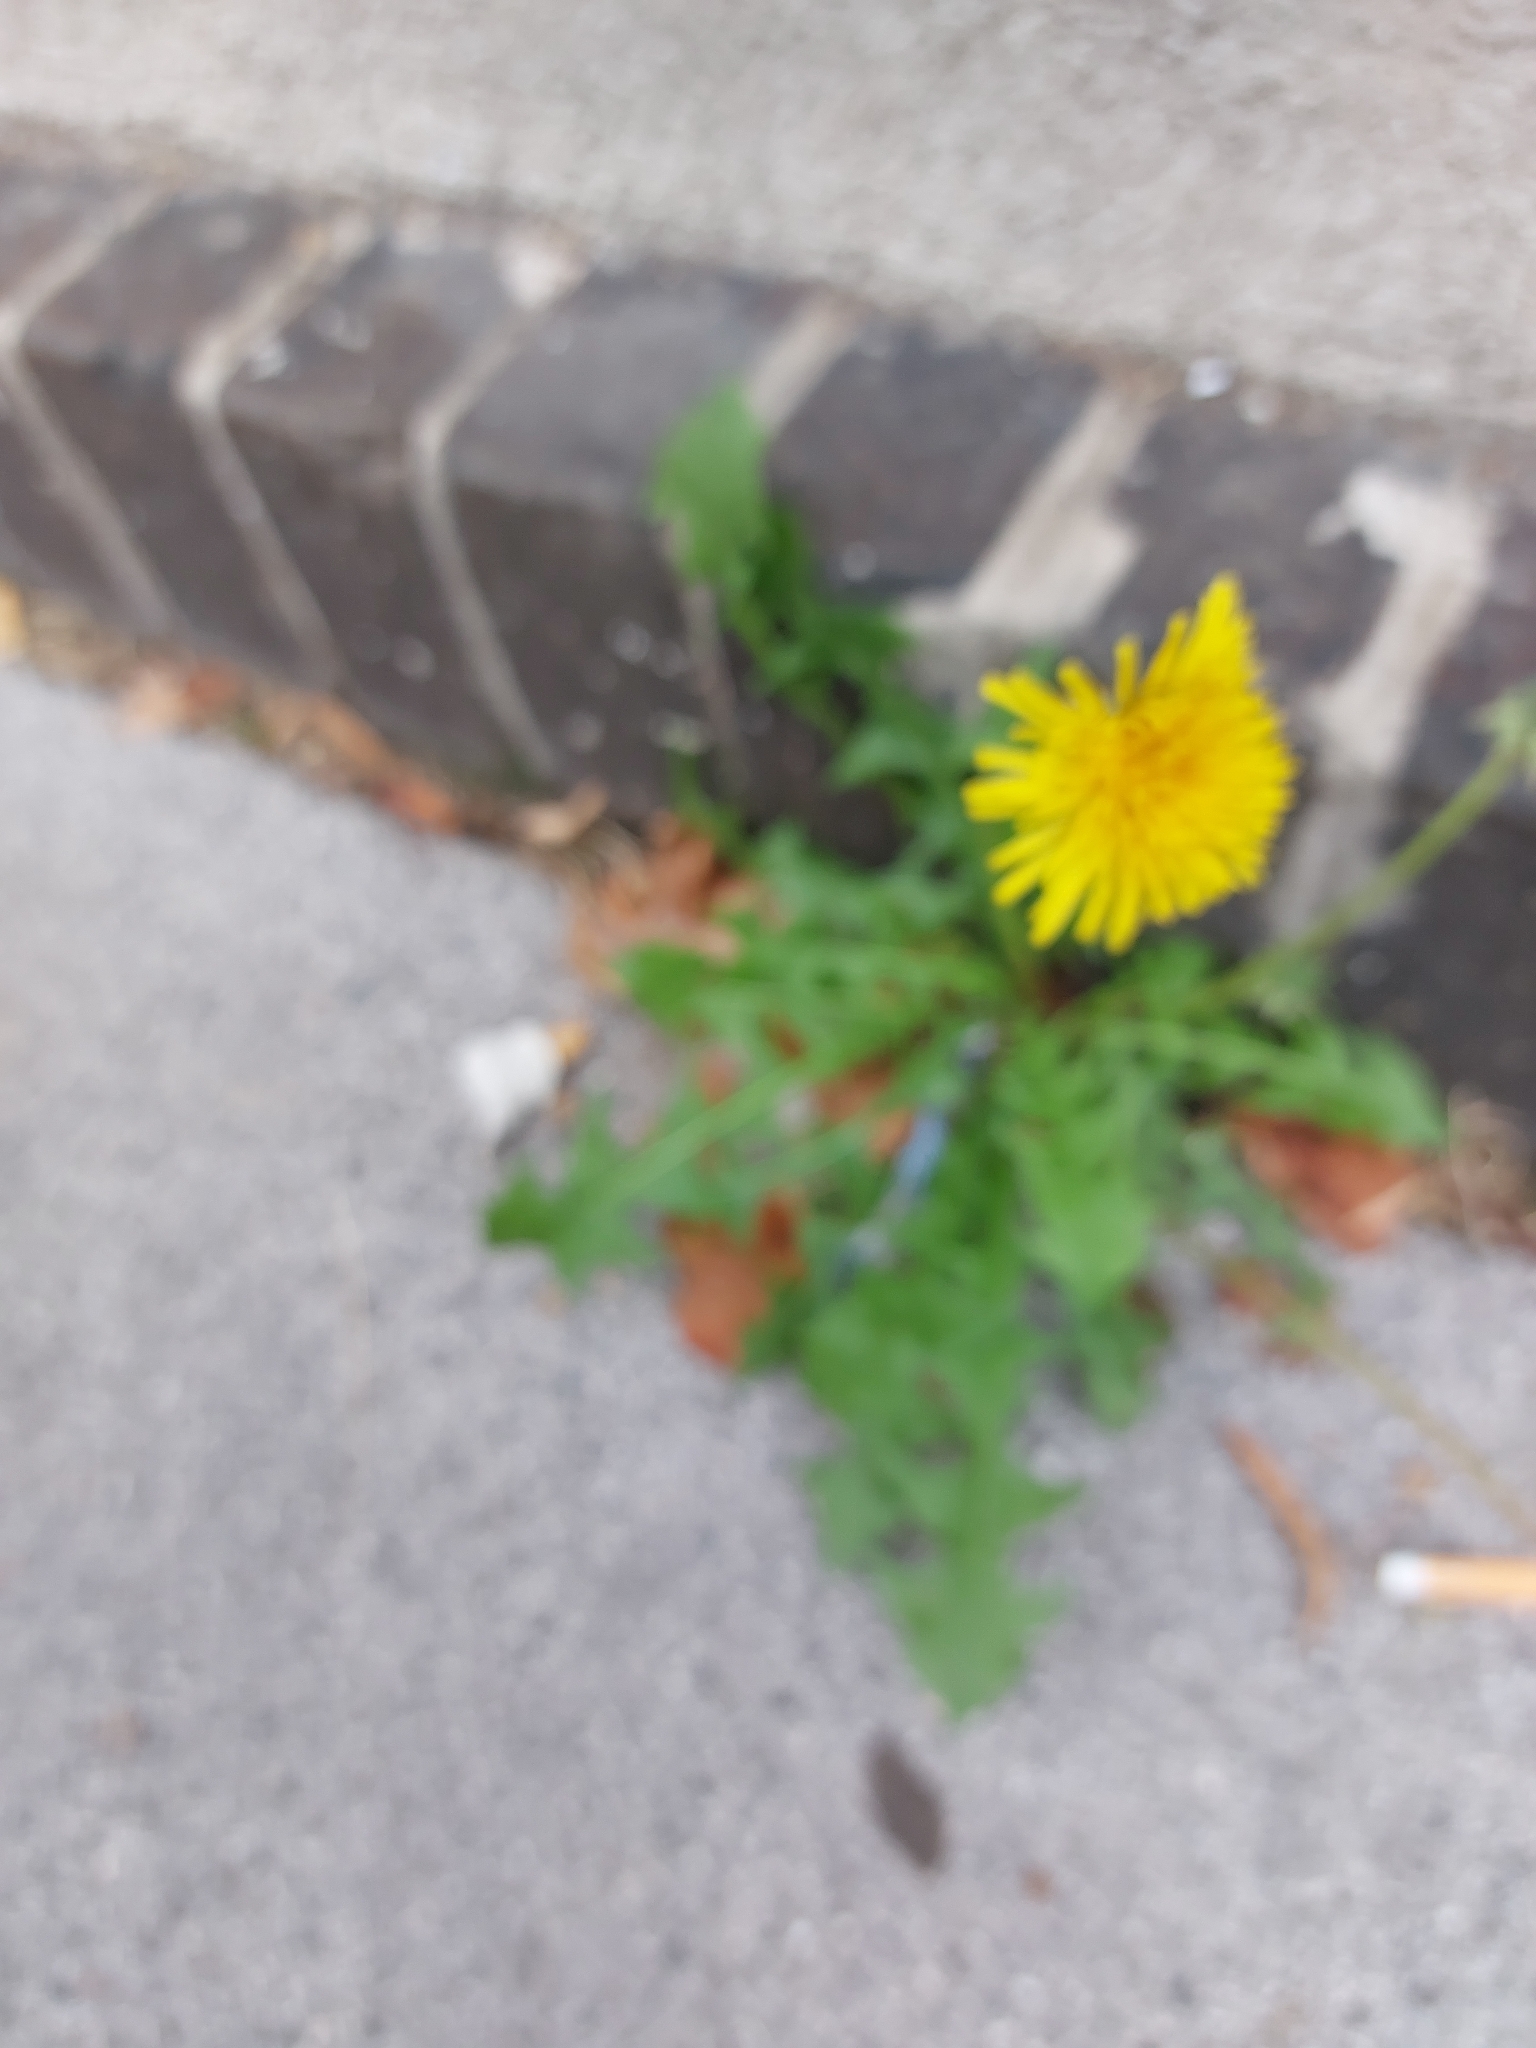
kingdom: Plantae
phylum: Tracheophyta
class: Magnoliopsida
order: Asterales
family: Asteraceae
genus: Taraxacum
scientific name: Taraxacum officinale
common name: Common dandelion
